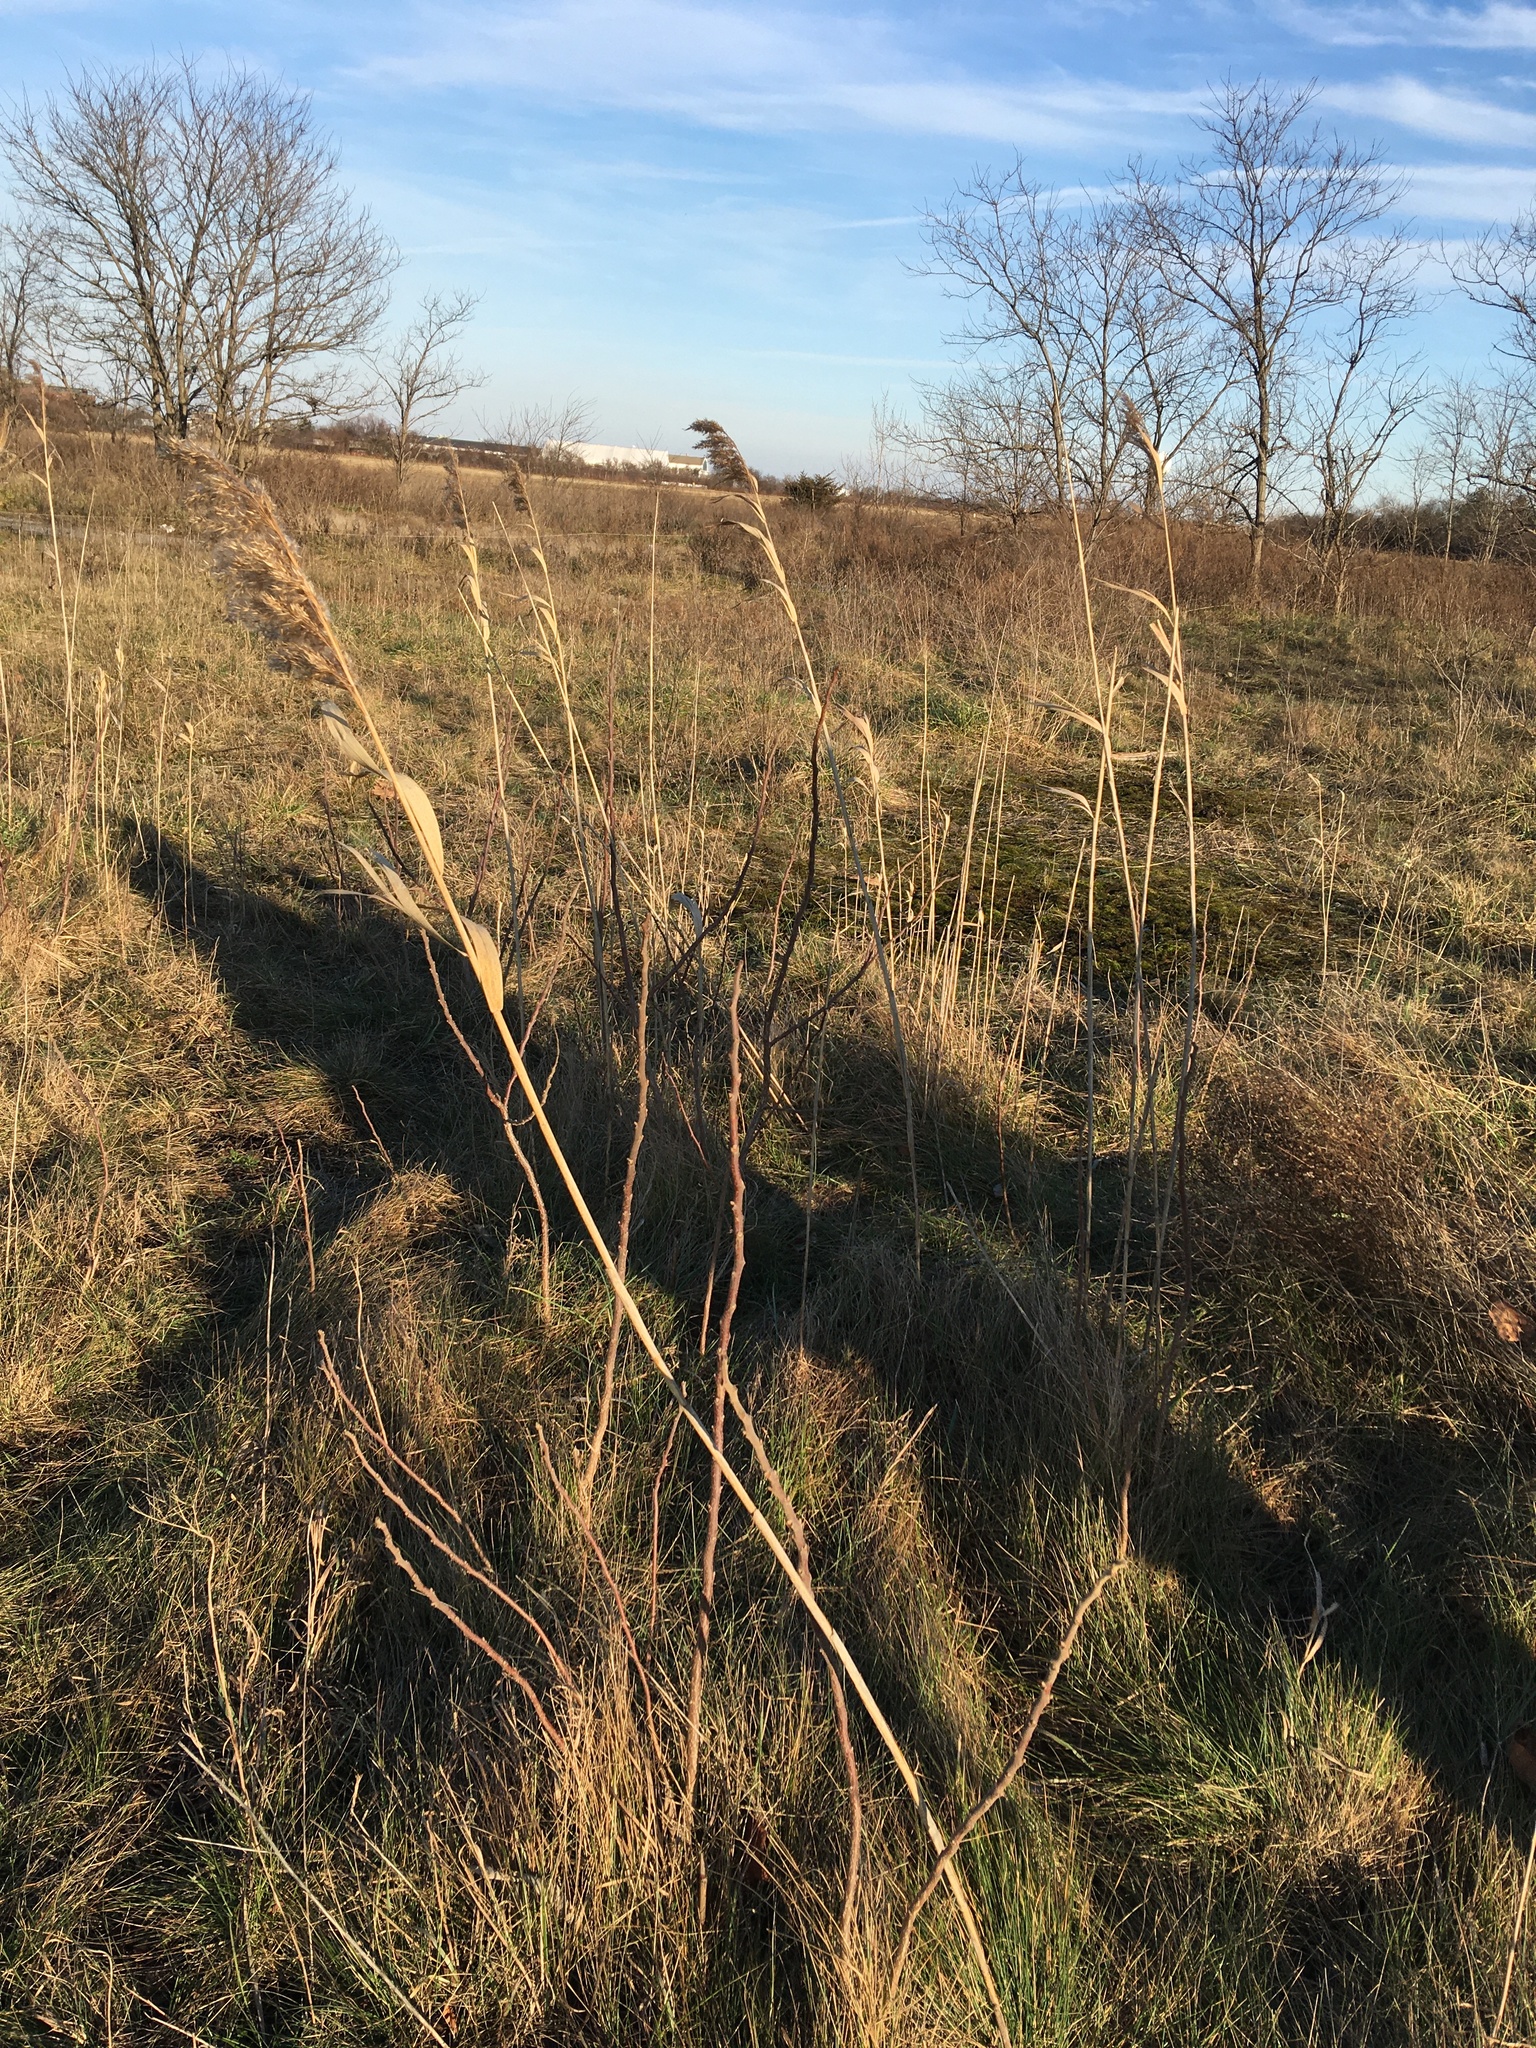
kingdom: Plantae
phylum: Tracheophyta
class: Liliopsida
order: Poales
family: Poaceae
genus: Phragmites
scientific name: Phragmites australis
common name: Common reed
